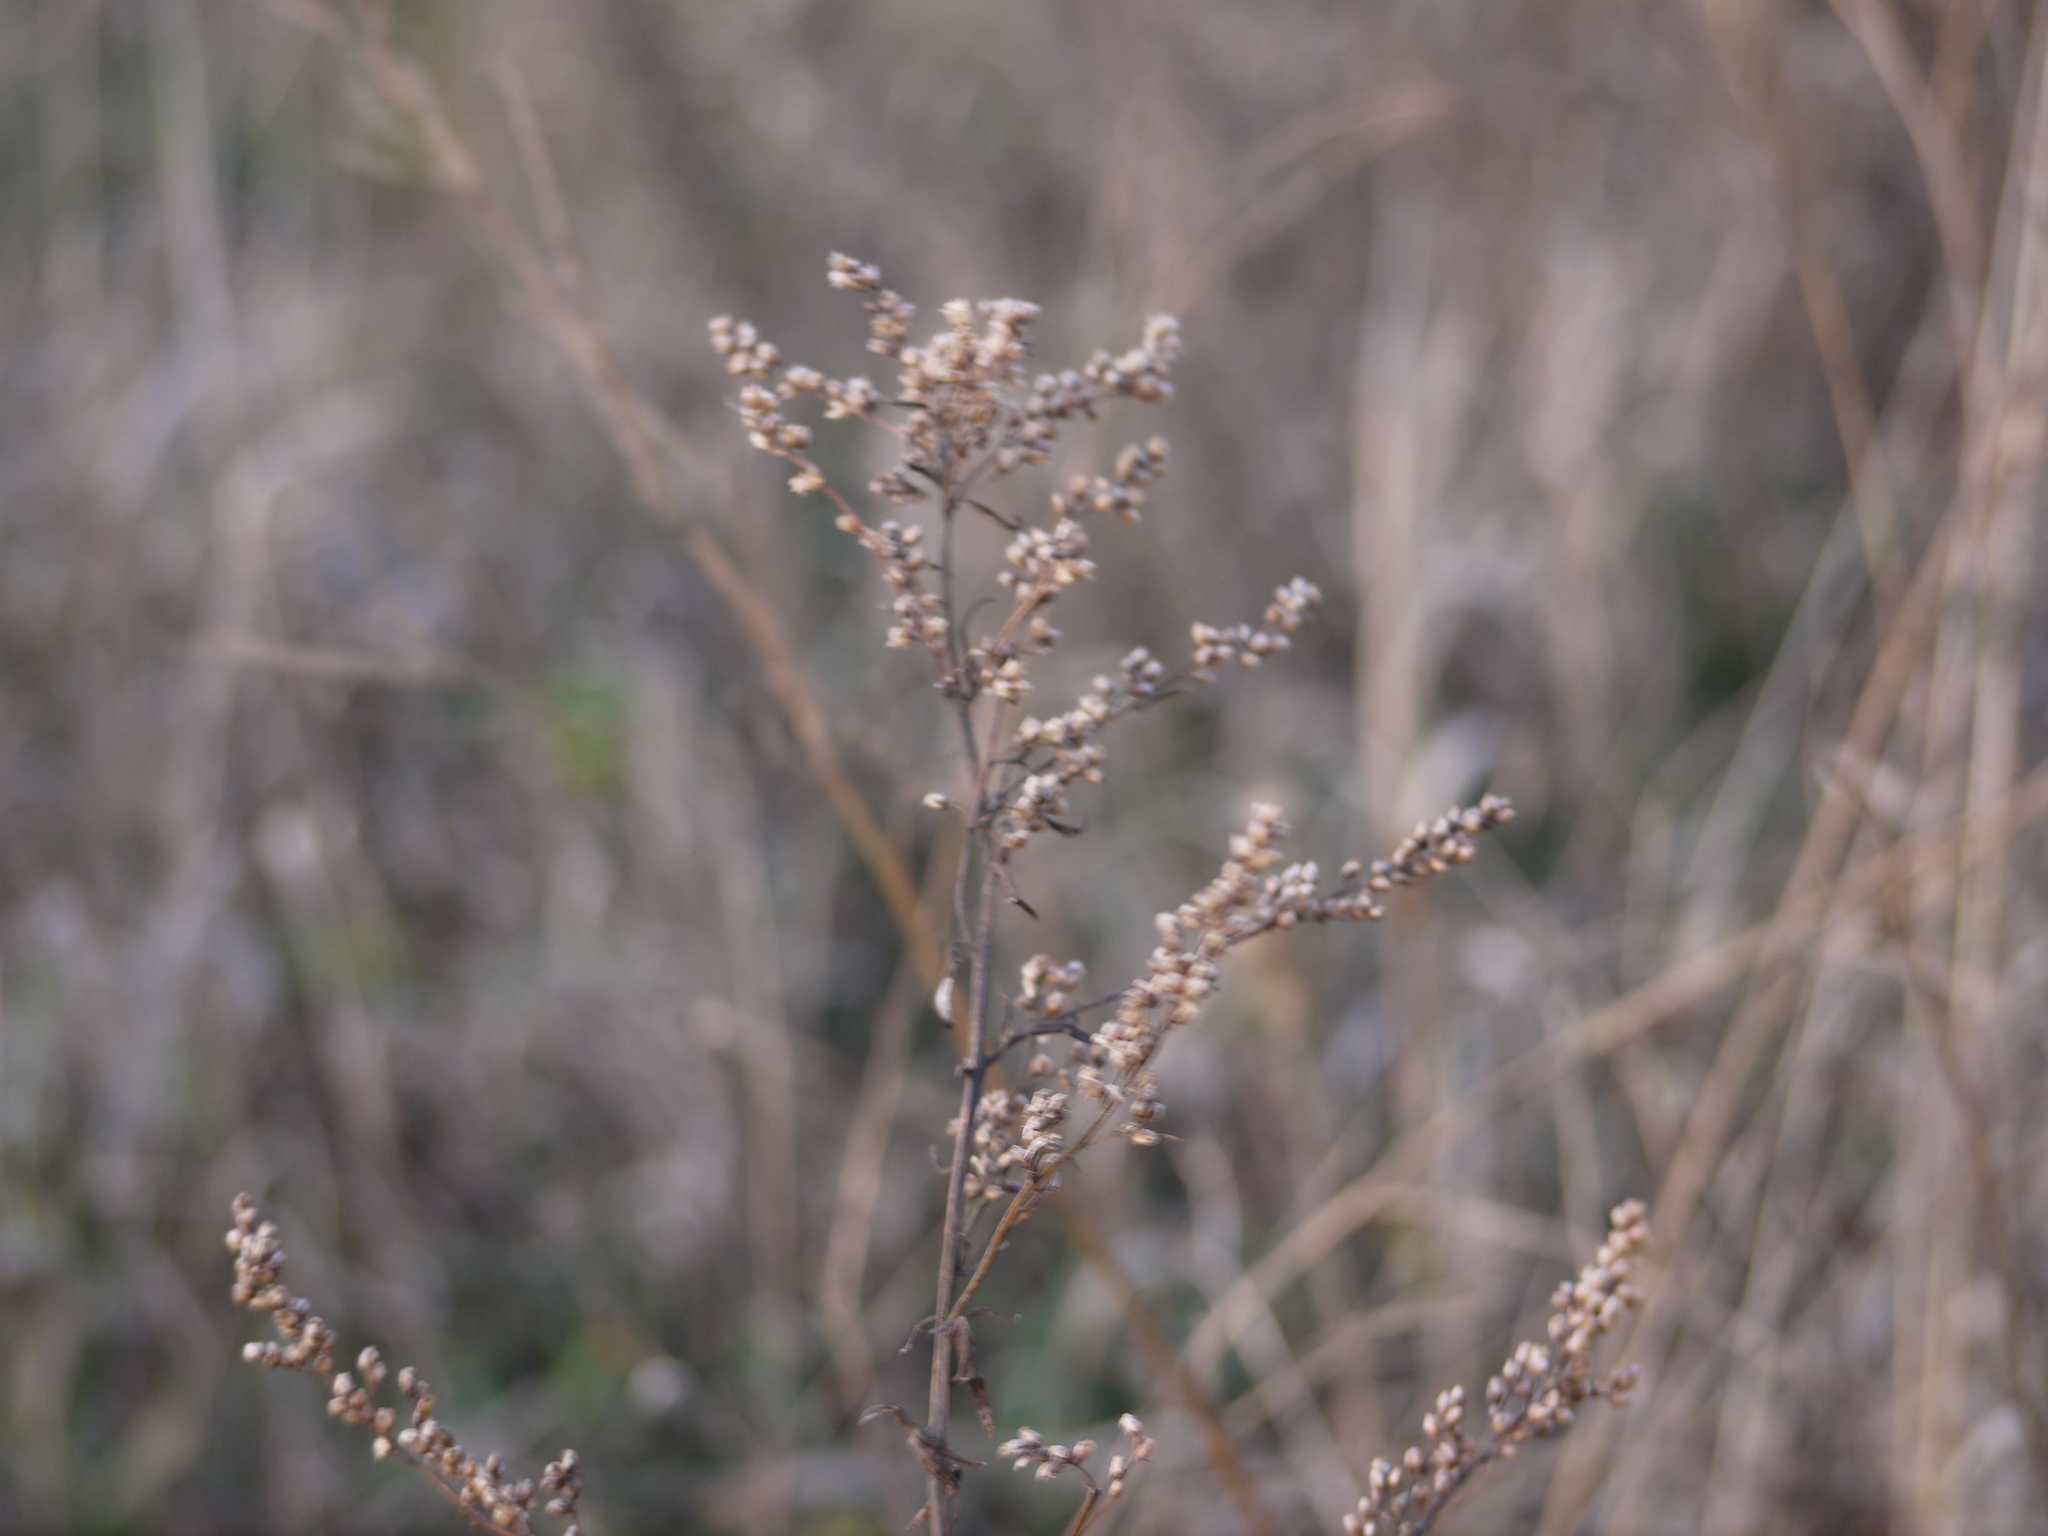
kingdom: Plantae
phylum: Tracheophyta
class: Magnoliopsida
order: Asterales
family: Asteraceae
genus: Artemisia
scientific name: Artemisia vulgaris
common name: Mugwort
